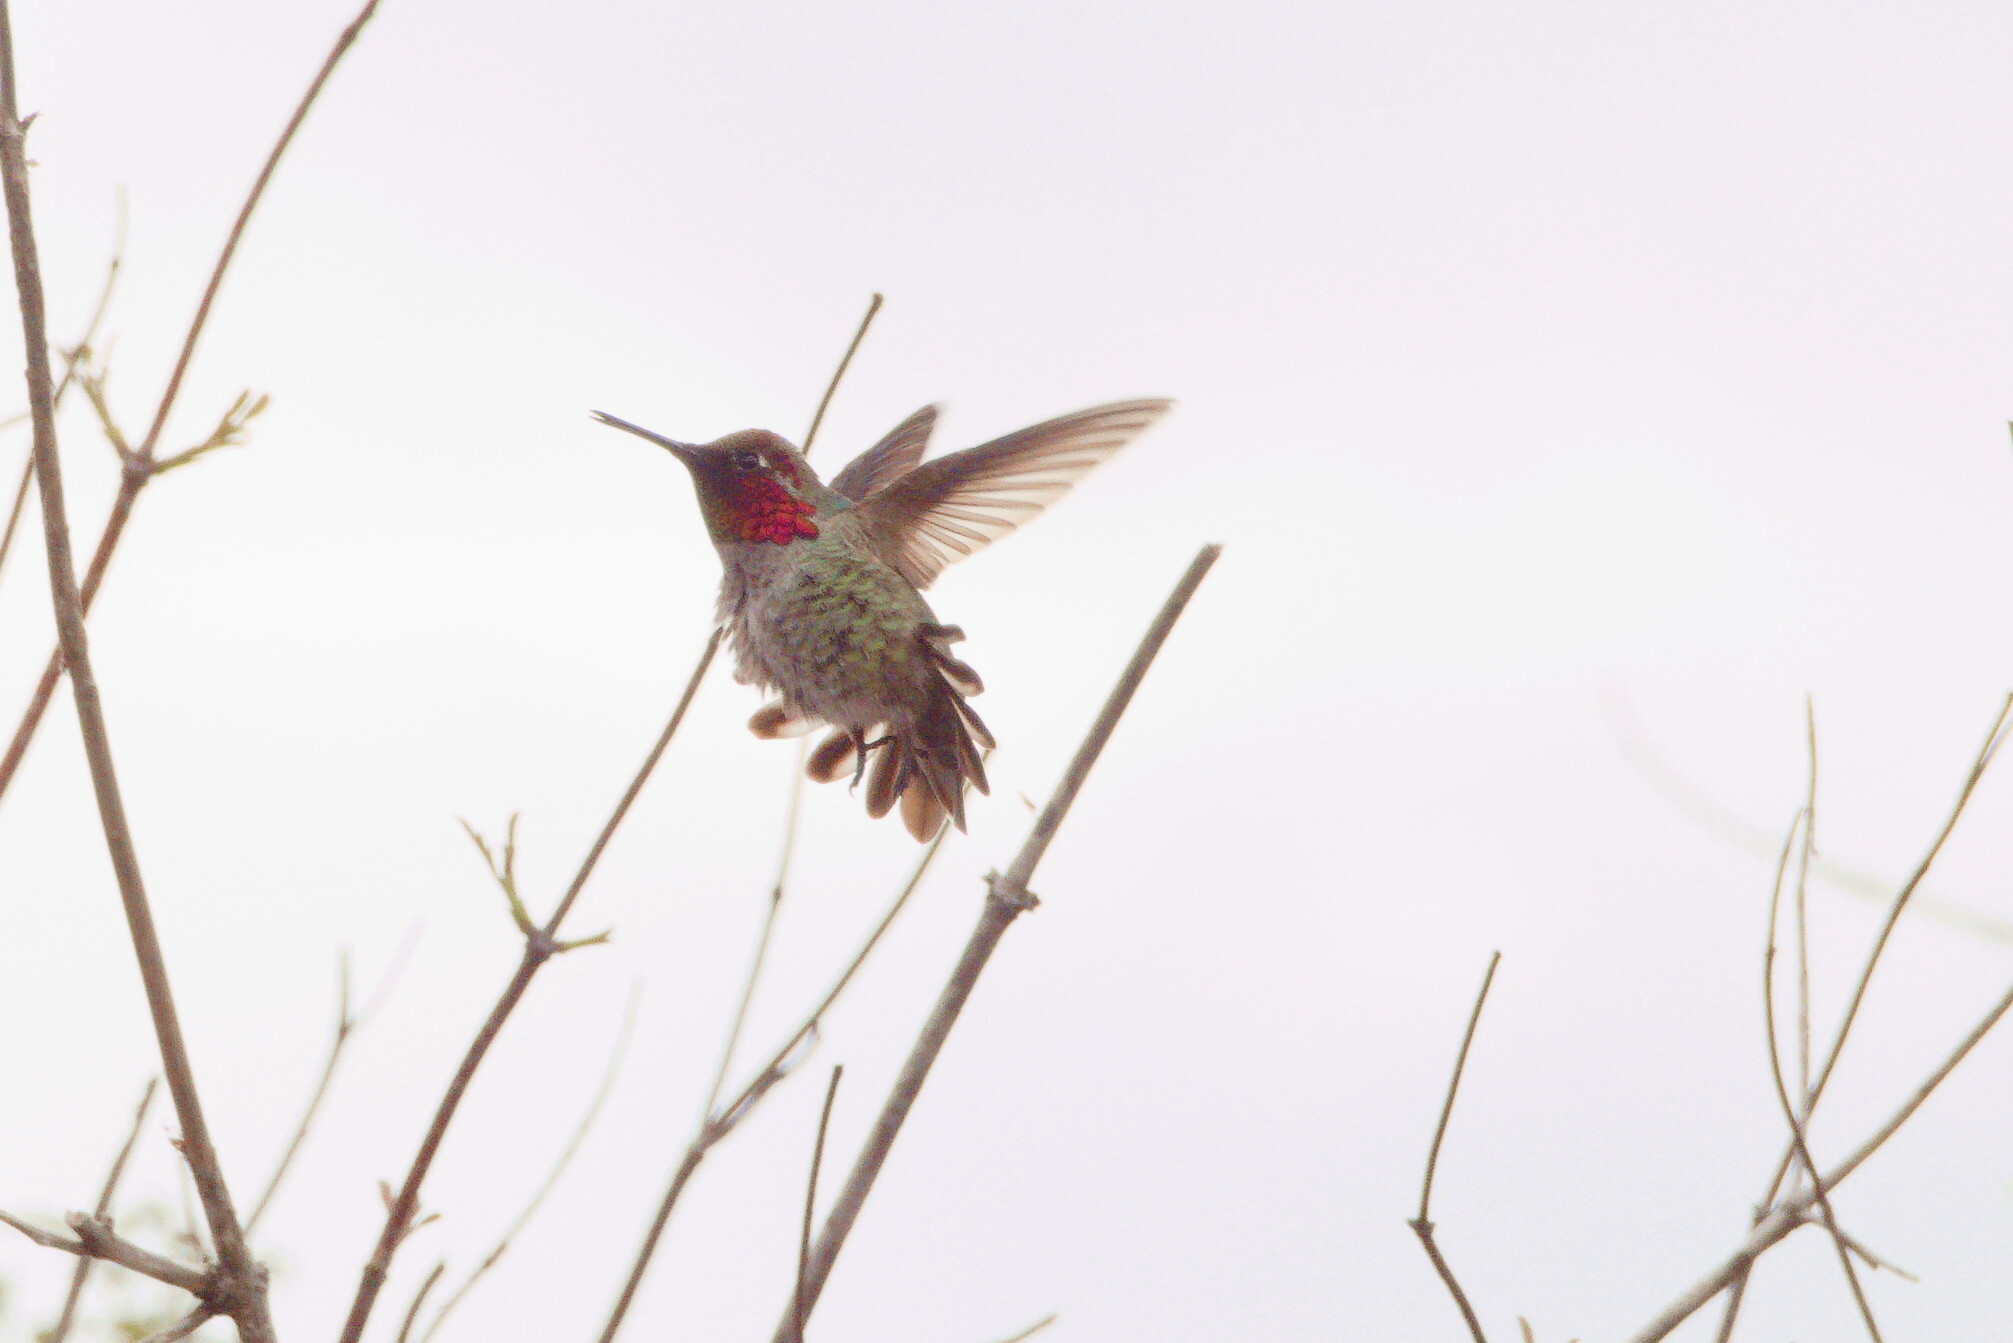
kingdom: Animalia
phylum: Chordata
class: Aves
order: Apodiformes
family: Trochilidae
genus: Calypte
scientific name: Calypte anna
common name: Anna's hummingbird
